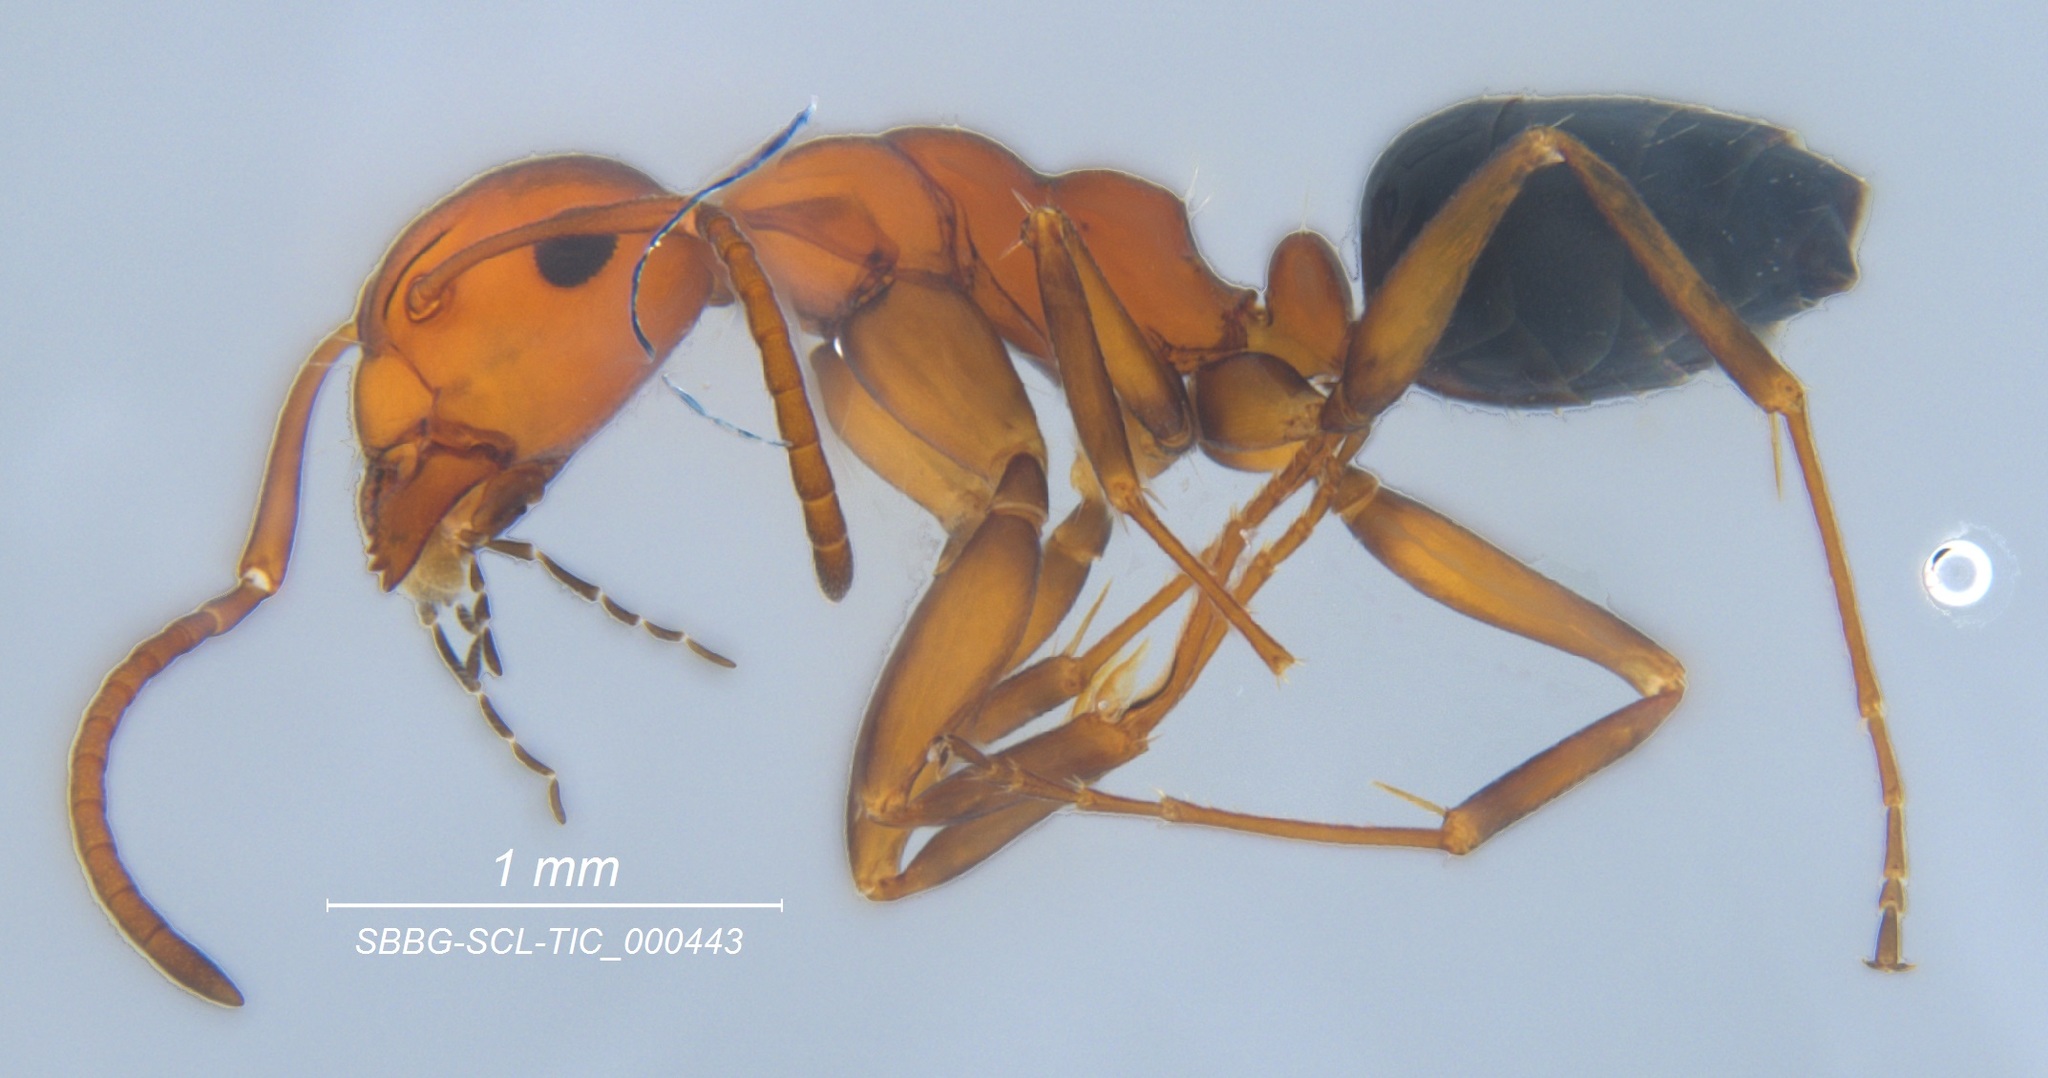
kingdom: Animalia
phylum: Arthropoda
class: Insecta
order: Hymenoptera
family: Formicidae
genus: Camponotus
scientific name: Camponotus bakeri
